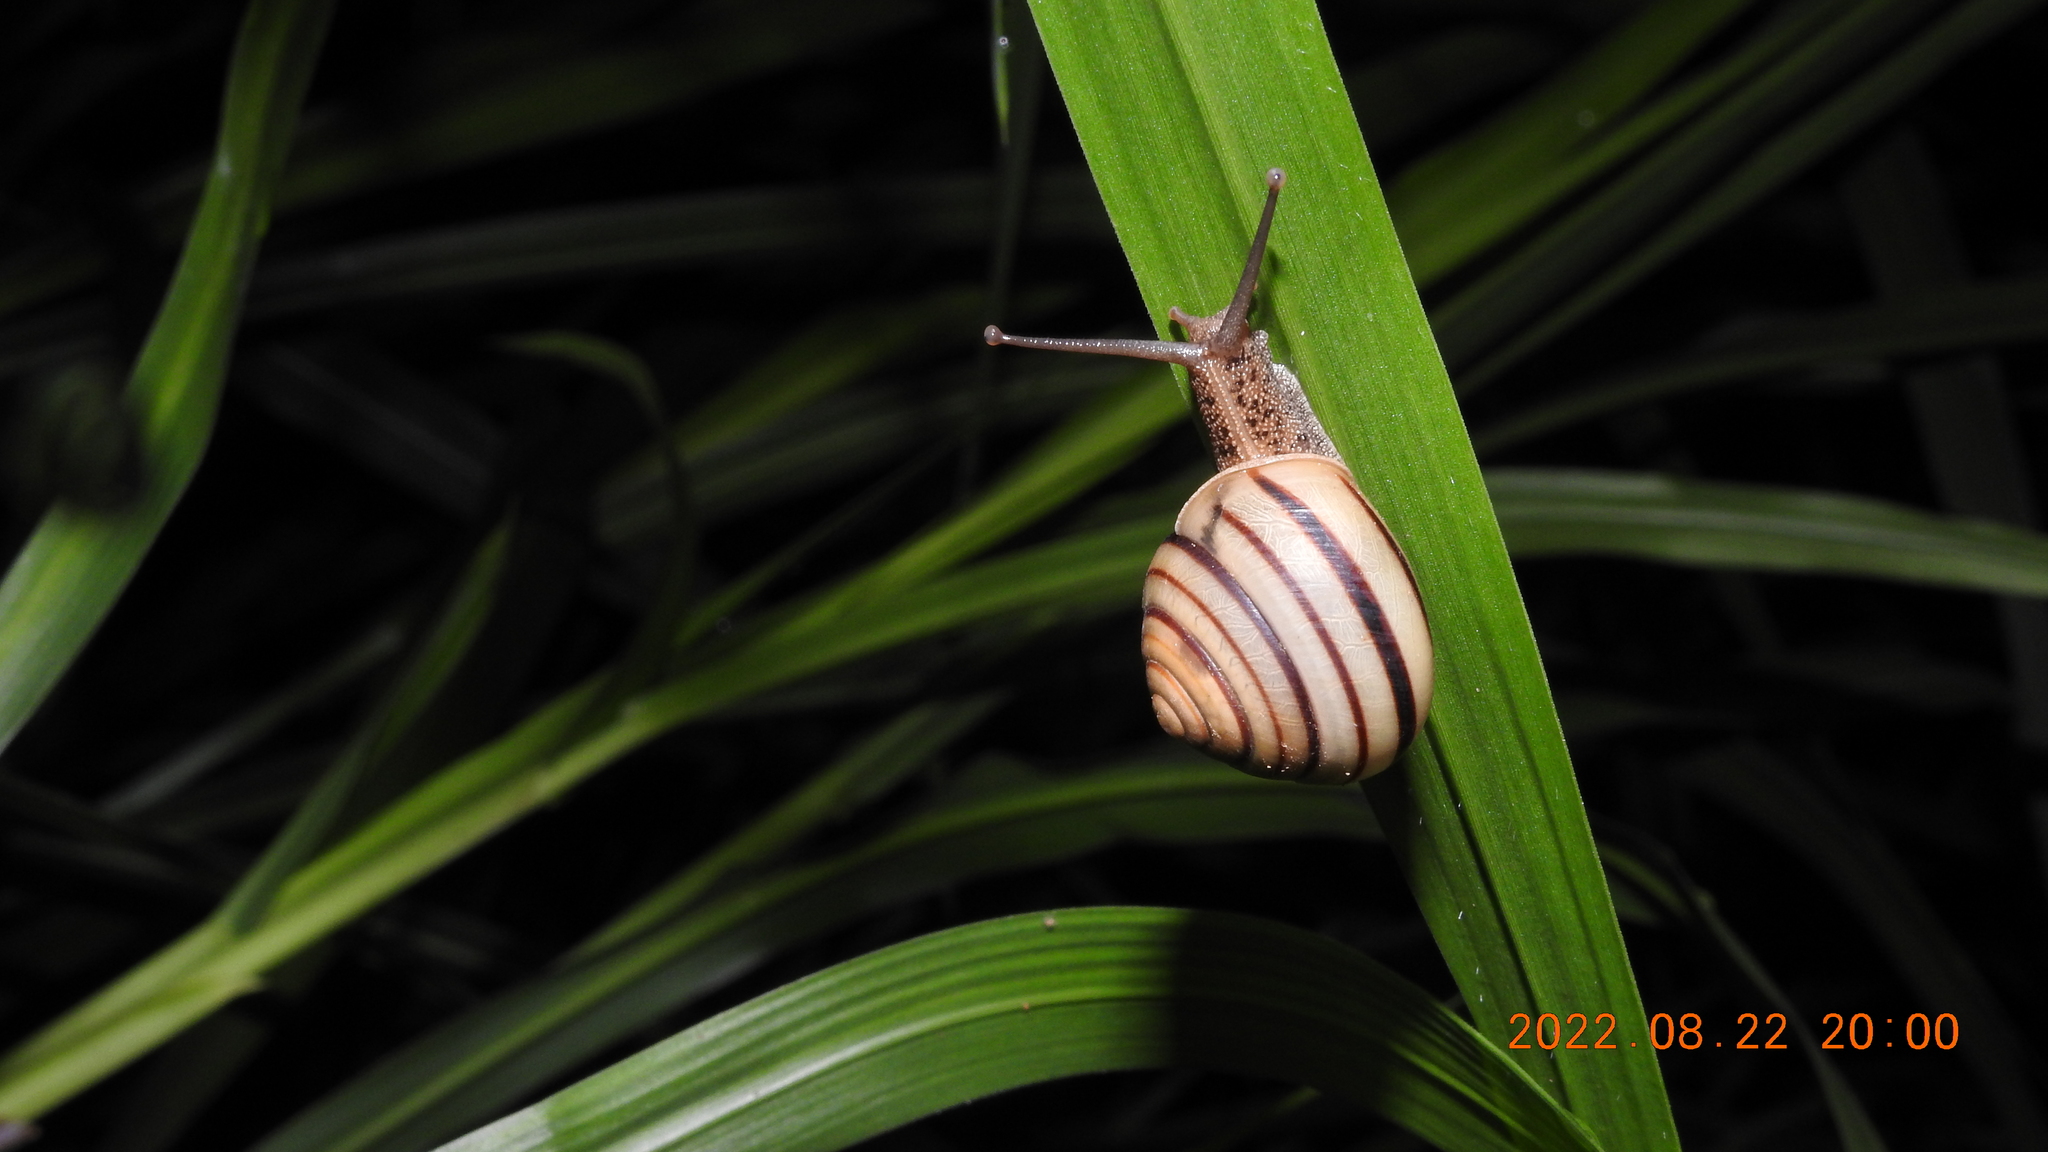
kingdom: Animalia
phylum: Mollusca
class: Gastropoda
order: Stylommatophora
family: Camaenidae
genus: Pancala
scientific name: Pancala batanica
